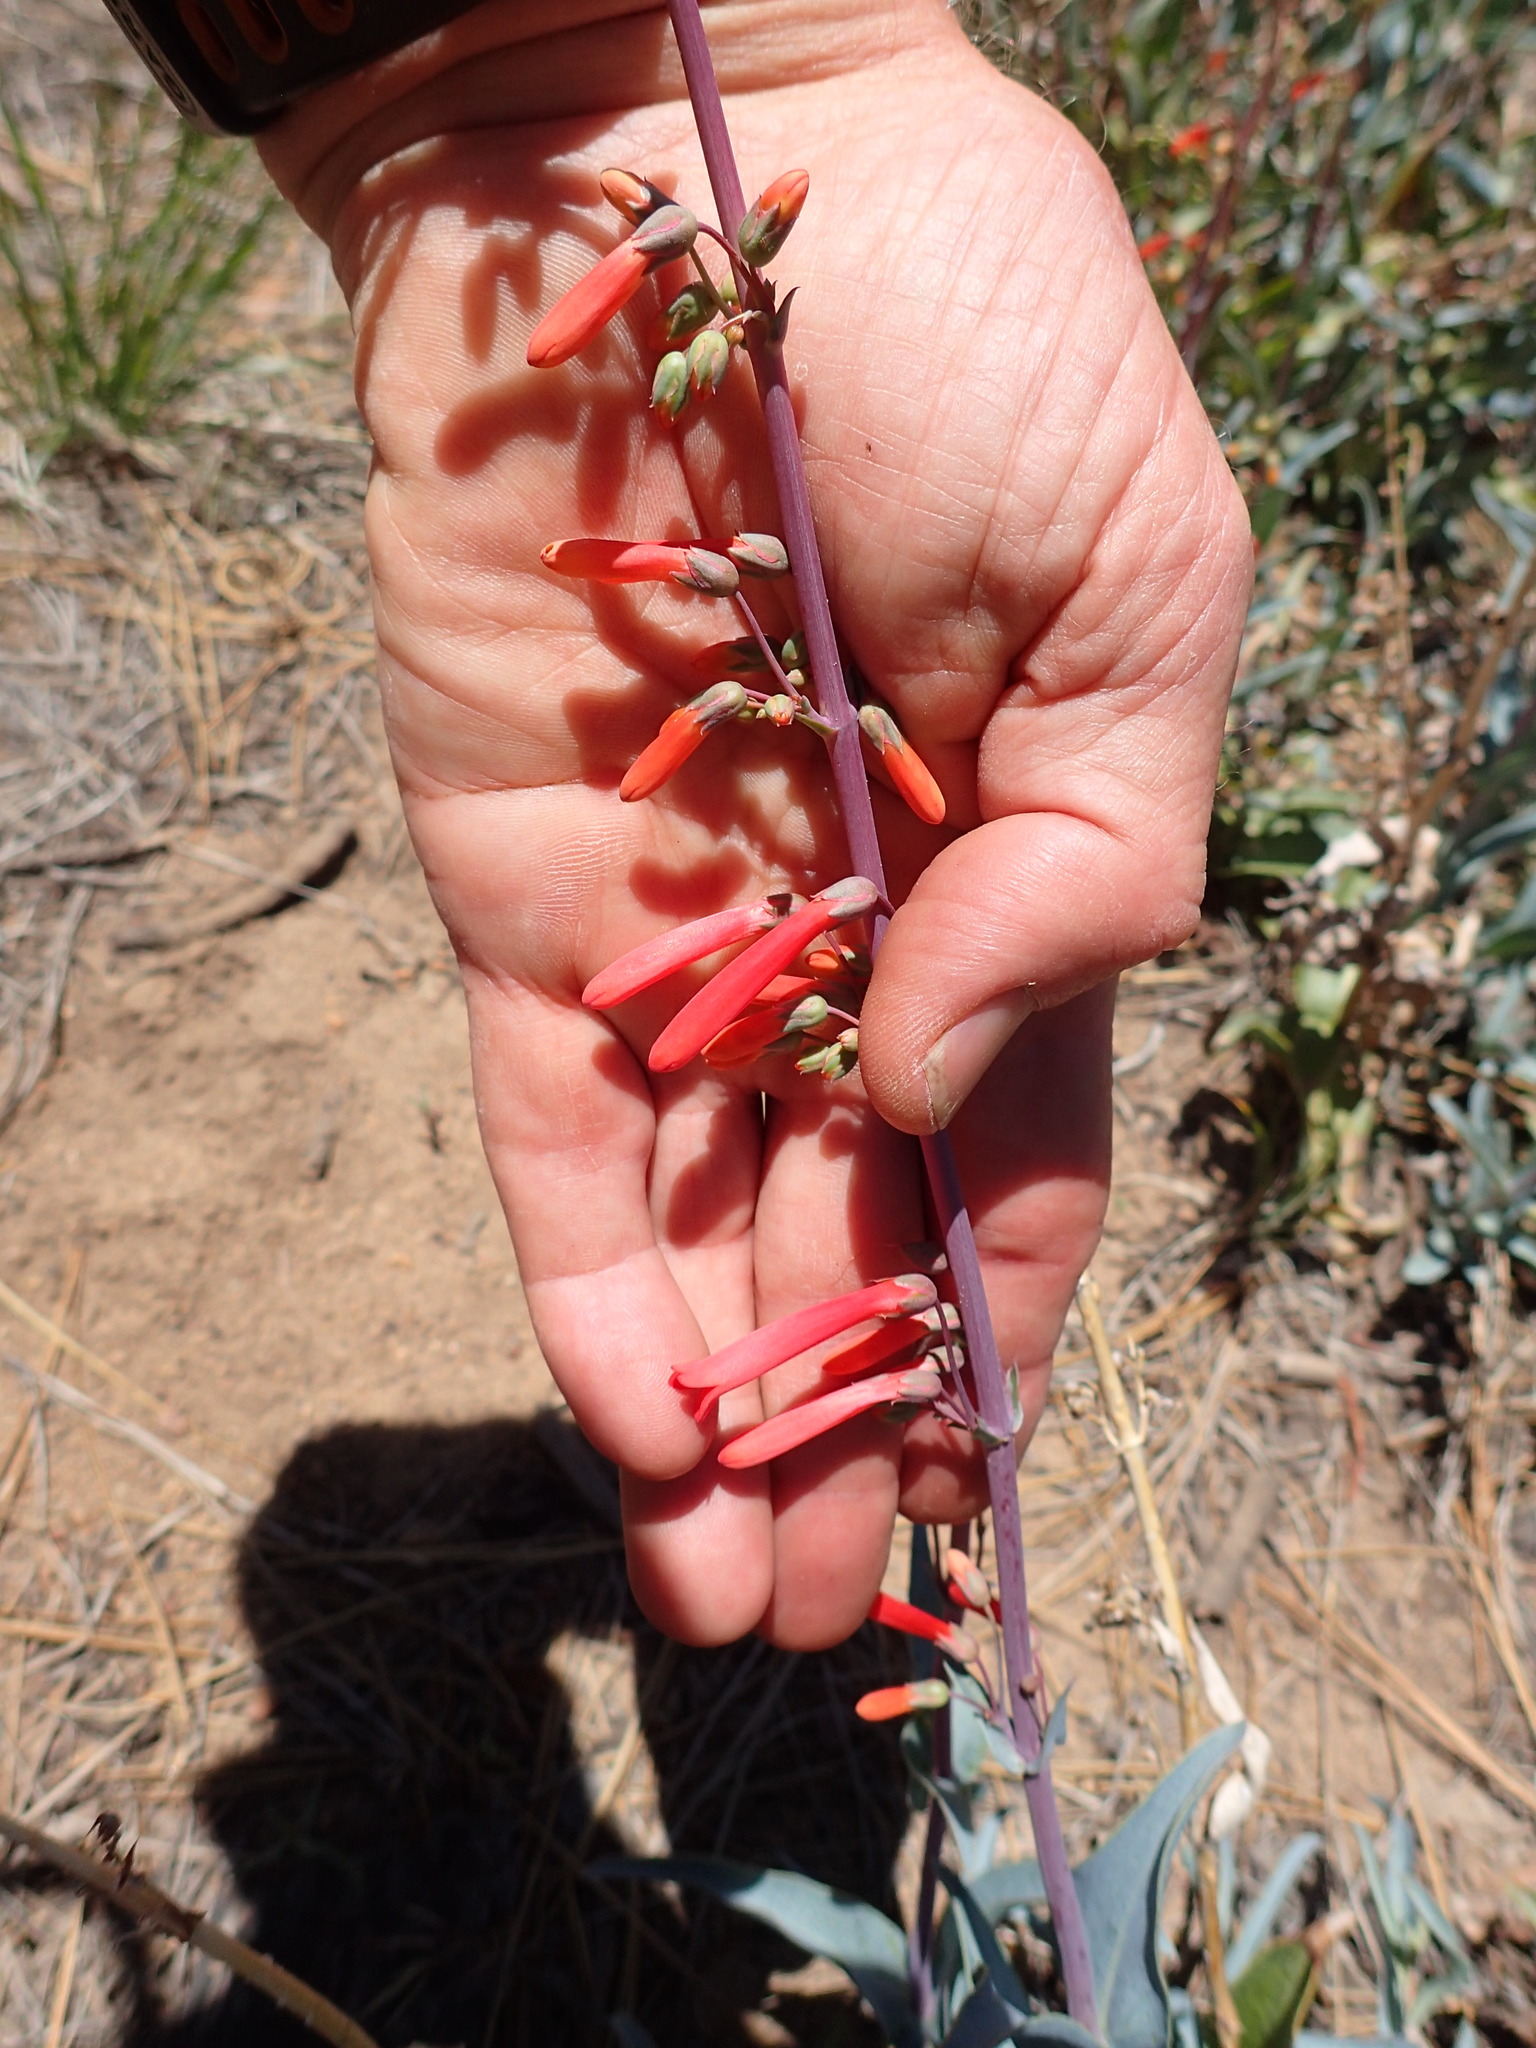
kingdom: Plantae
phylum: Tracheophyta
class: Magnoliopsida
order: Lamiales
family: Plantaginaceae
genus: Penstemon
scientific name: Penstemon centranthifolius
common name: Scarlet bugler
